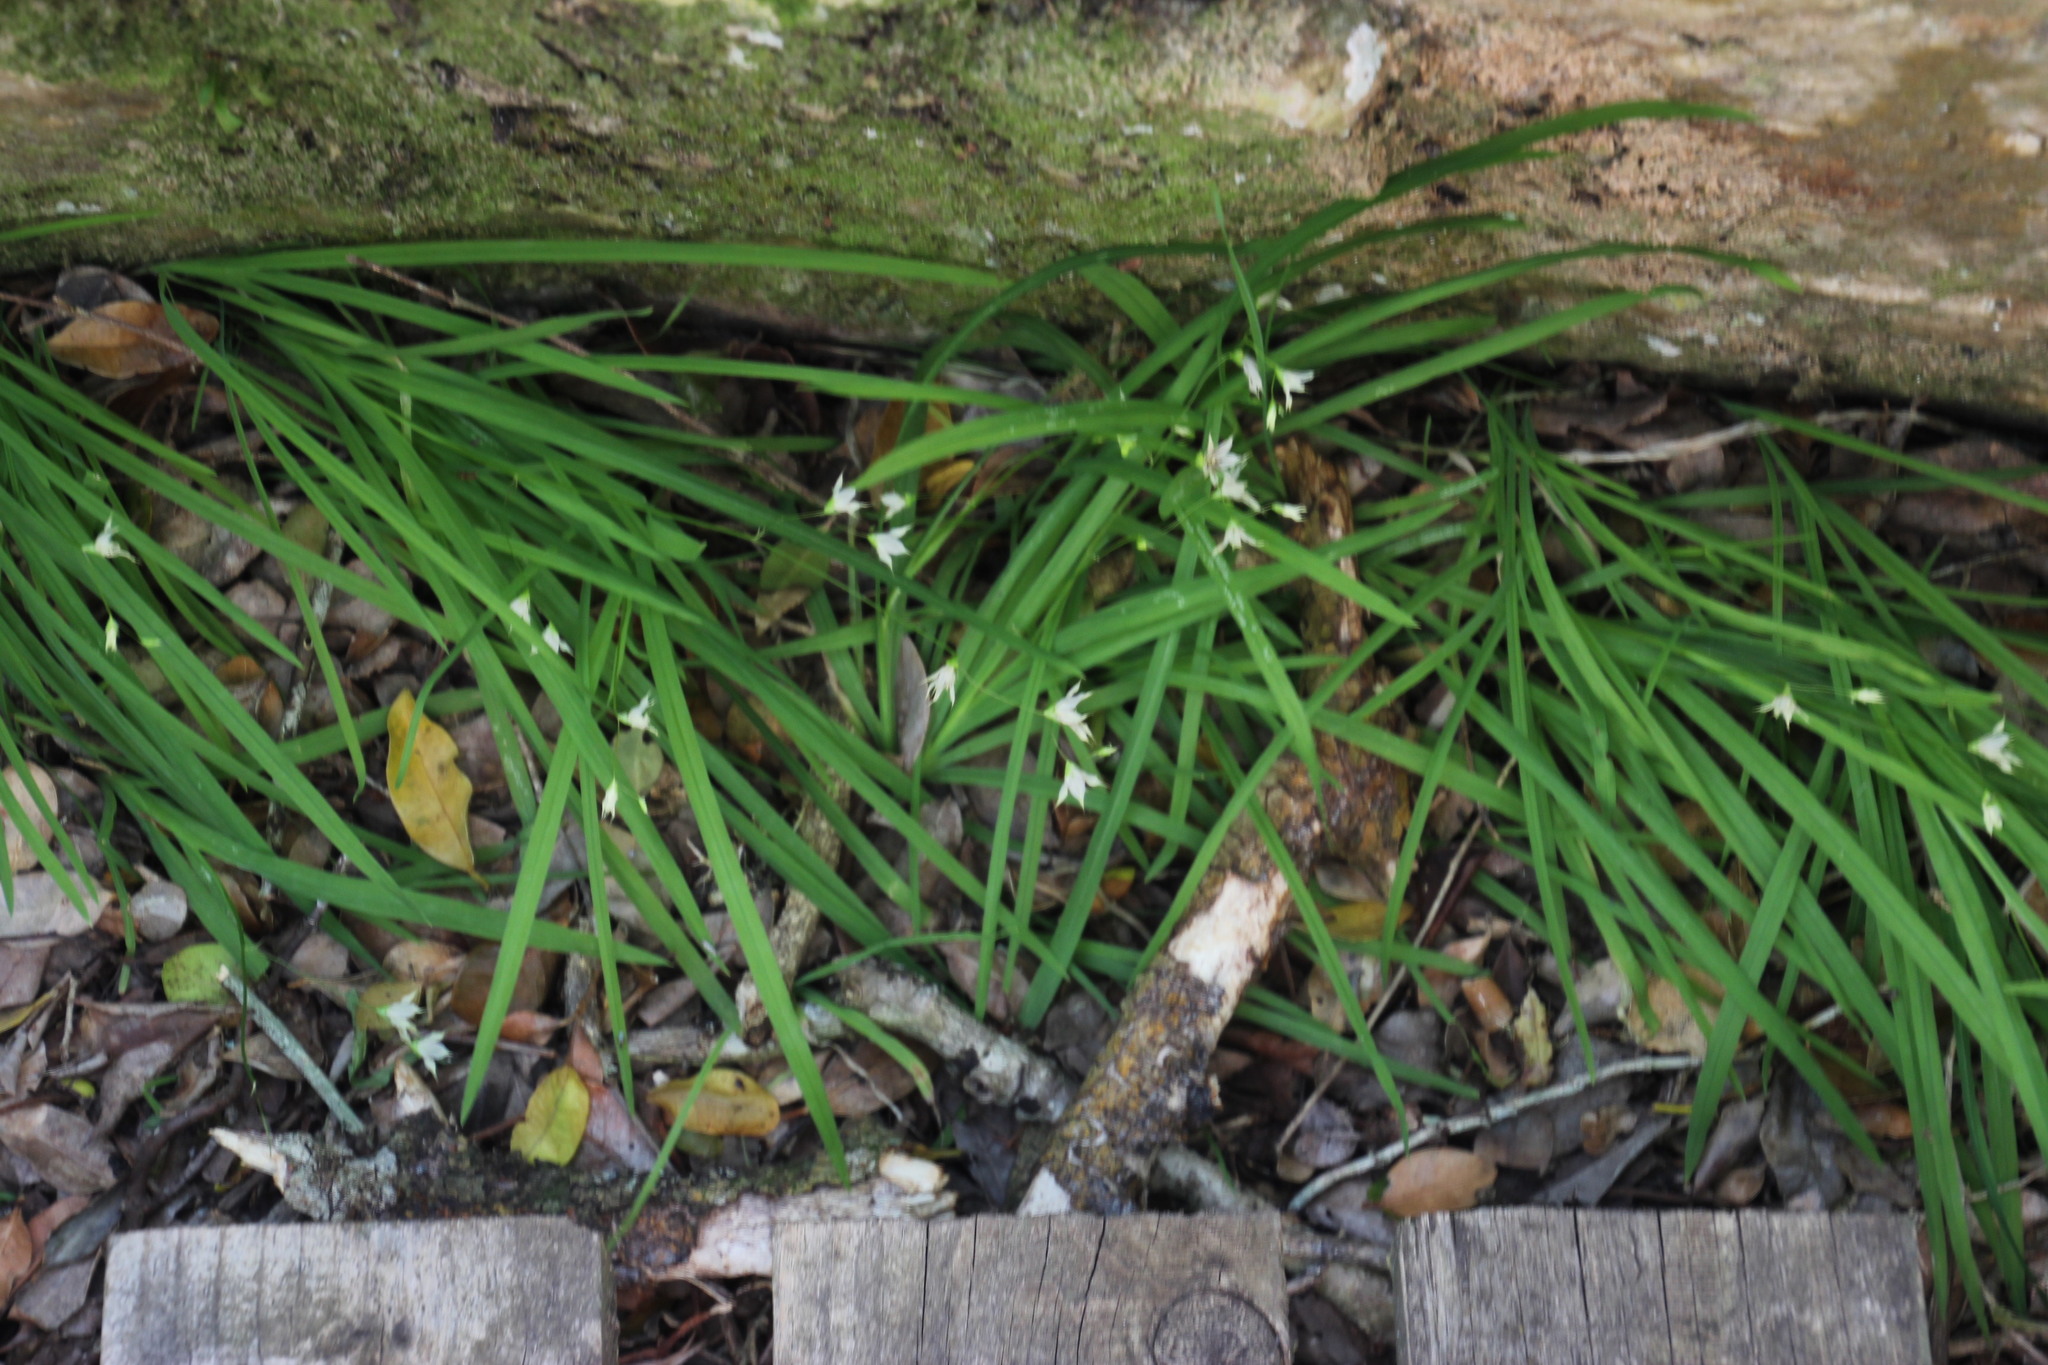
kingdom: Plantae
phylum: Tracheophyta
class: Liliopsida
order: Asparagales
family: Iridaceae
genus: Melasphaerula
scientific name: Melasphaerula graminea
